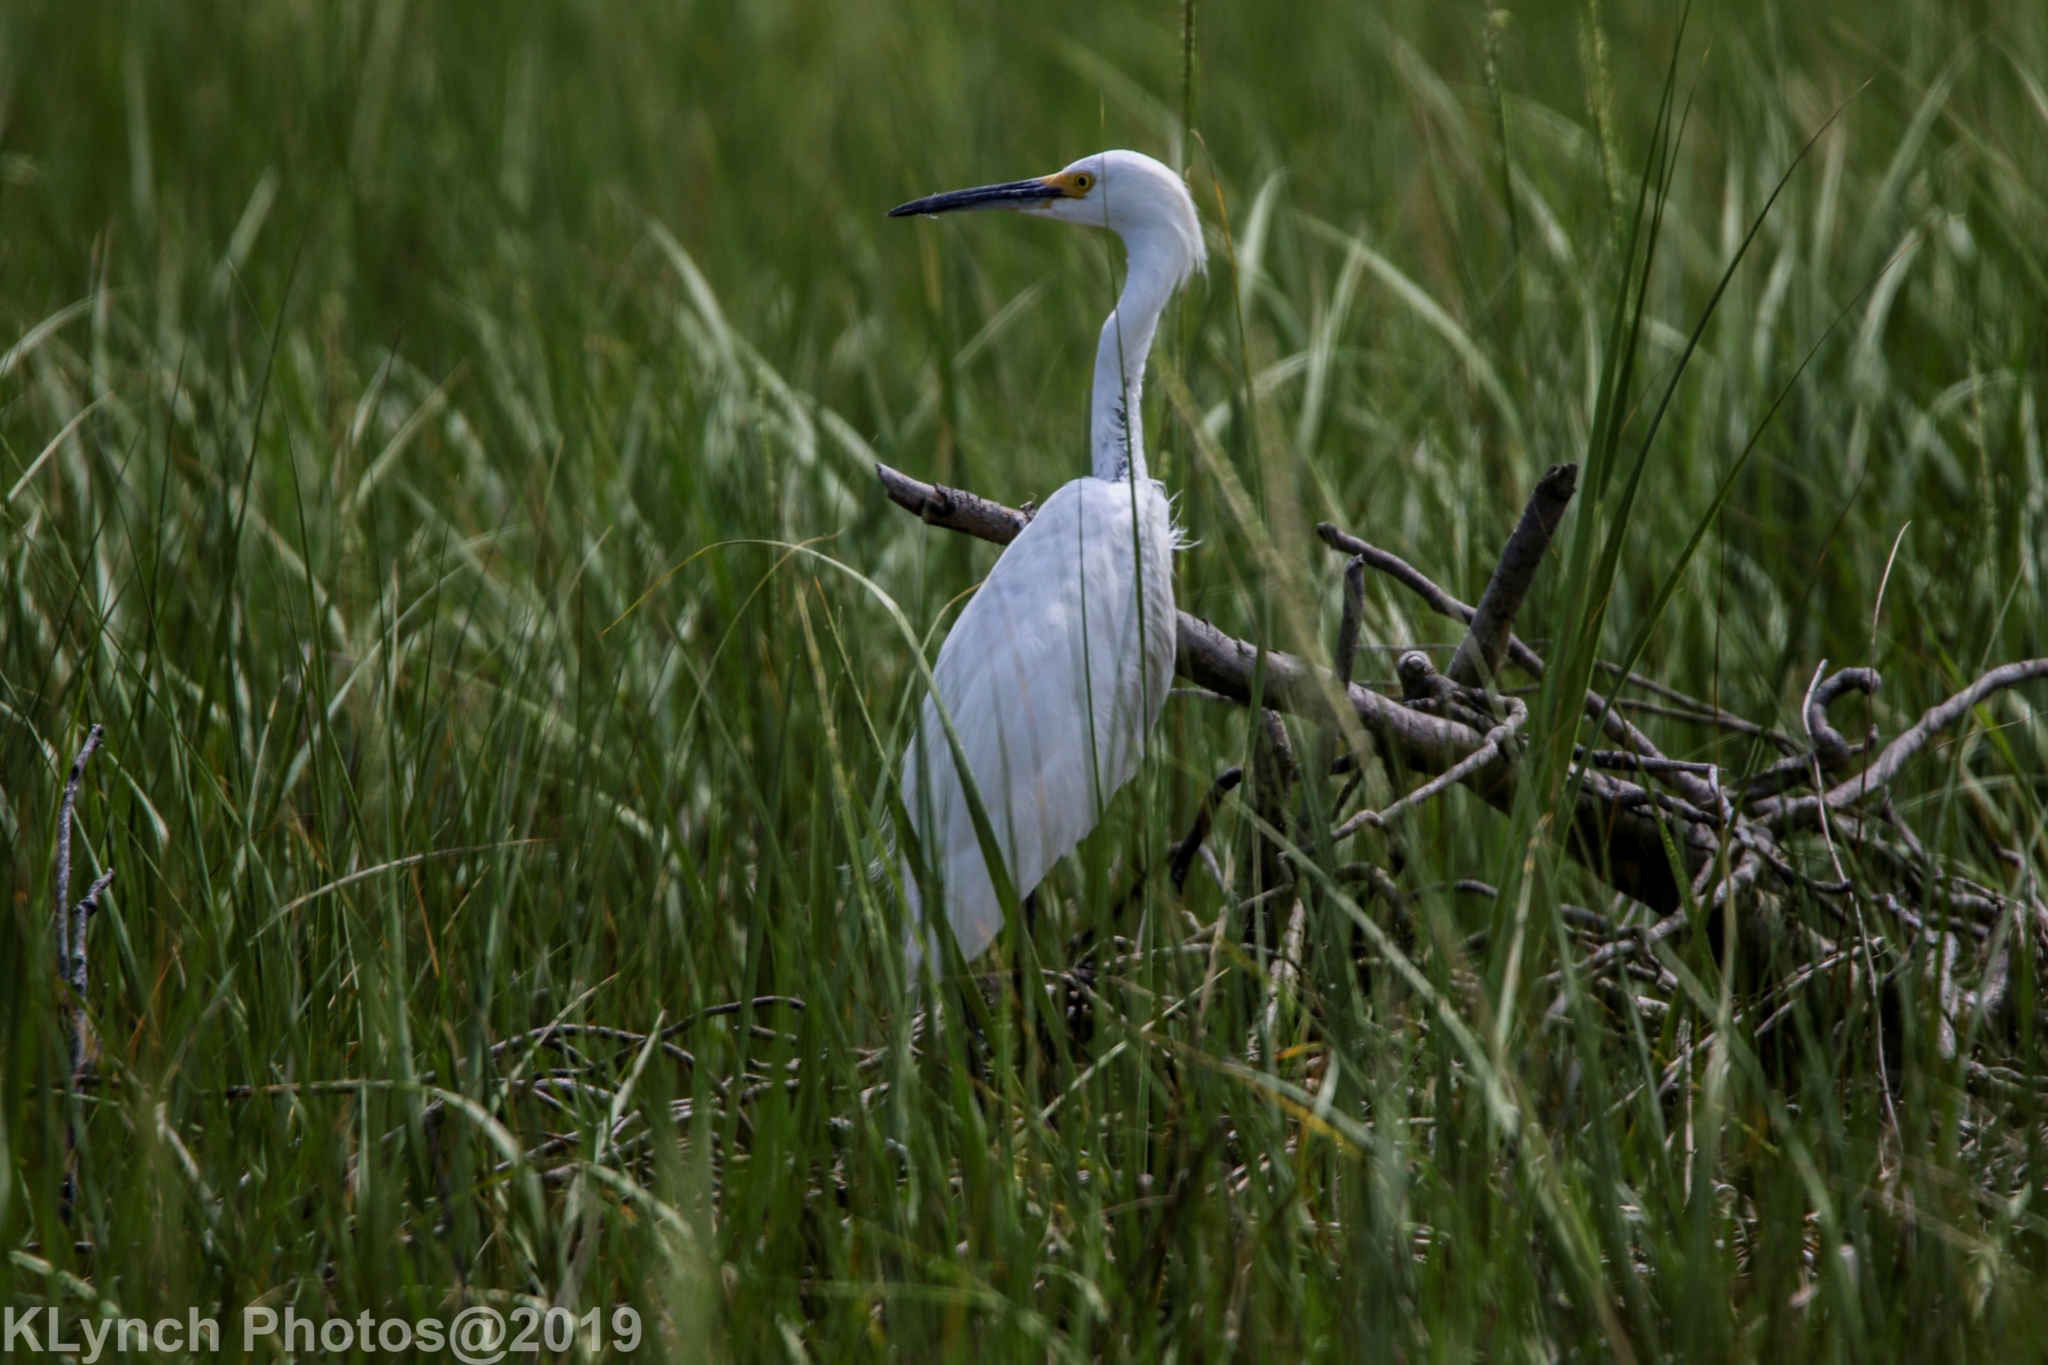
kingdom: Animalia
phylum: Chordata
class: Aves
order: Pelecaniformes
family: Ardeidae
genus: Egretta
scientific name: Egretta thula
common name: Snowy egret
